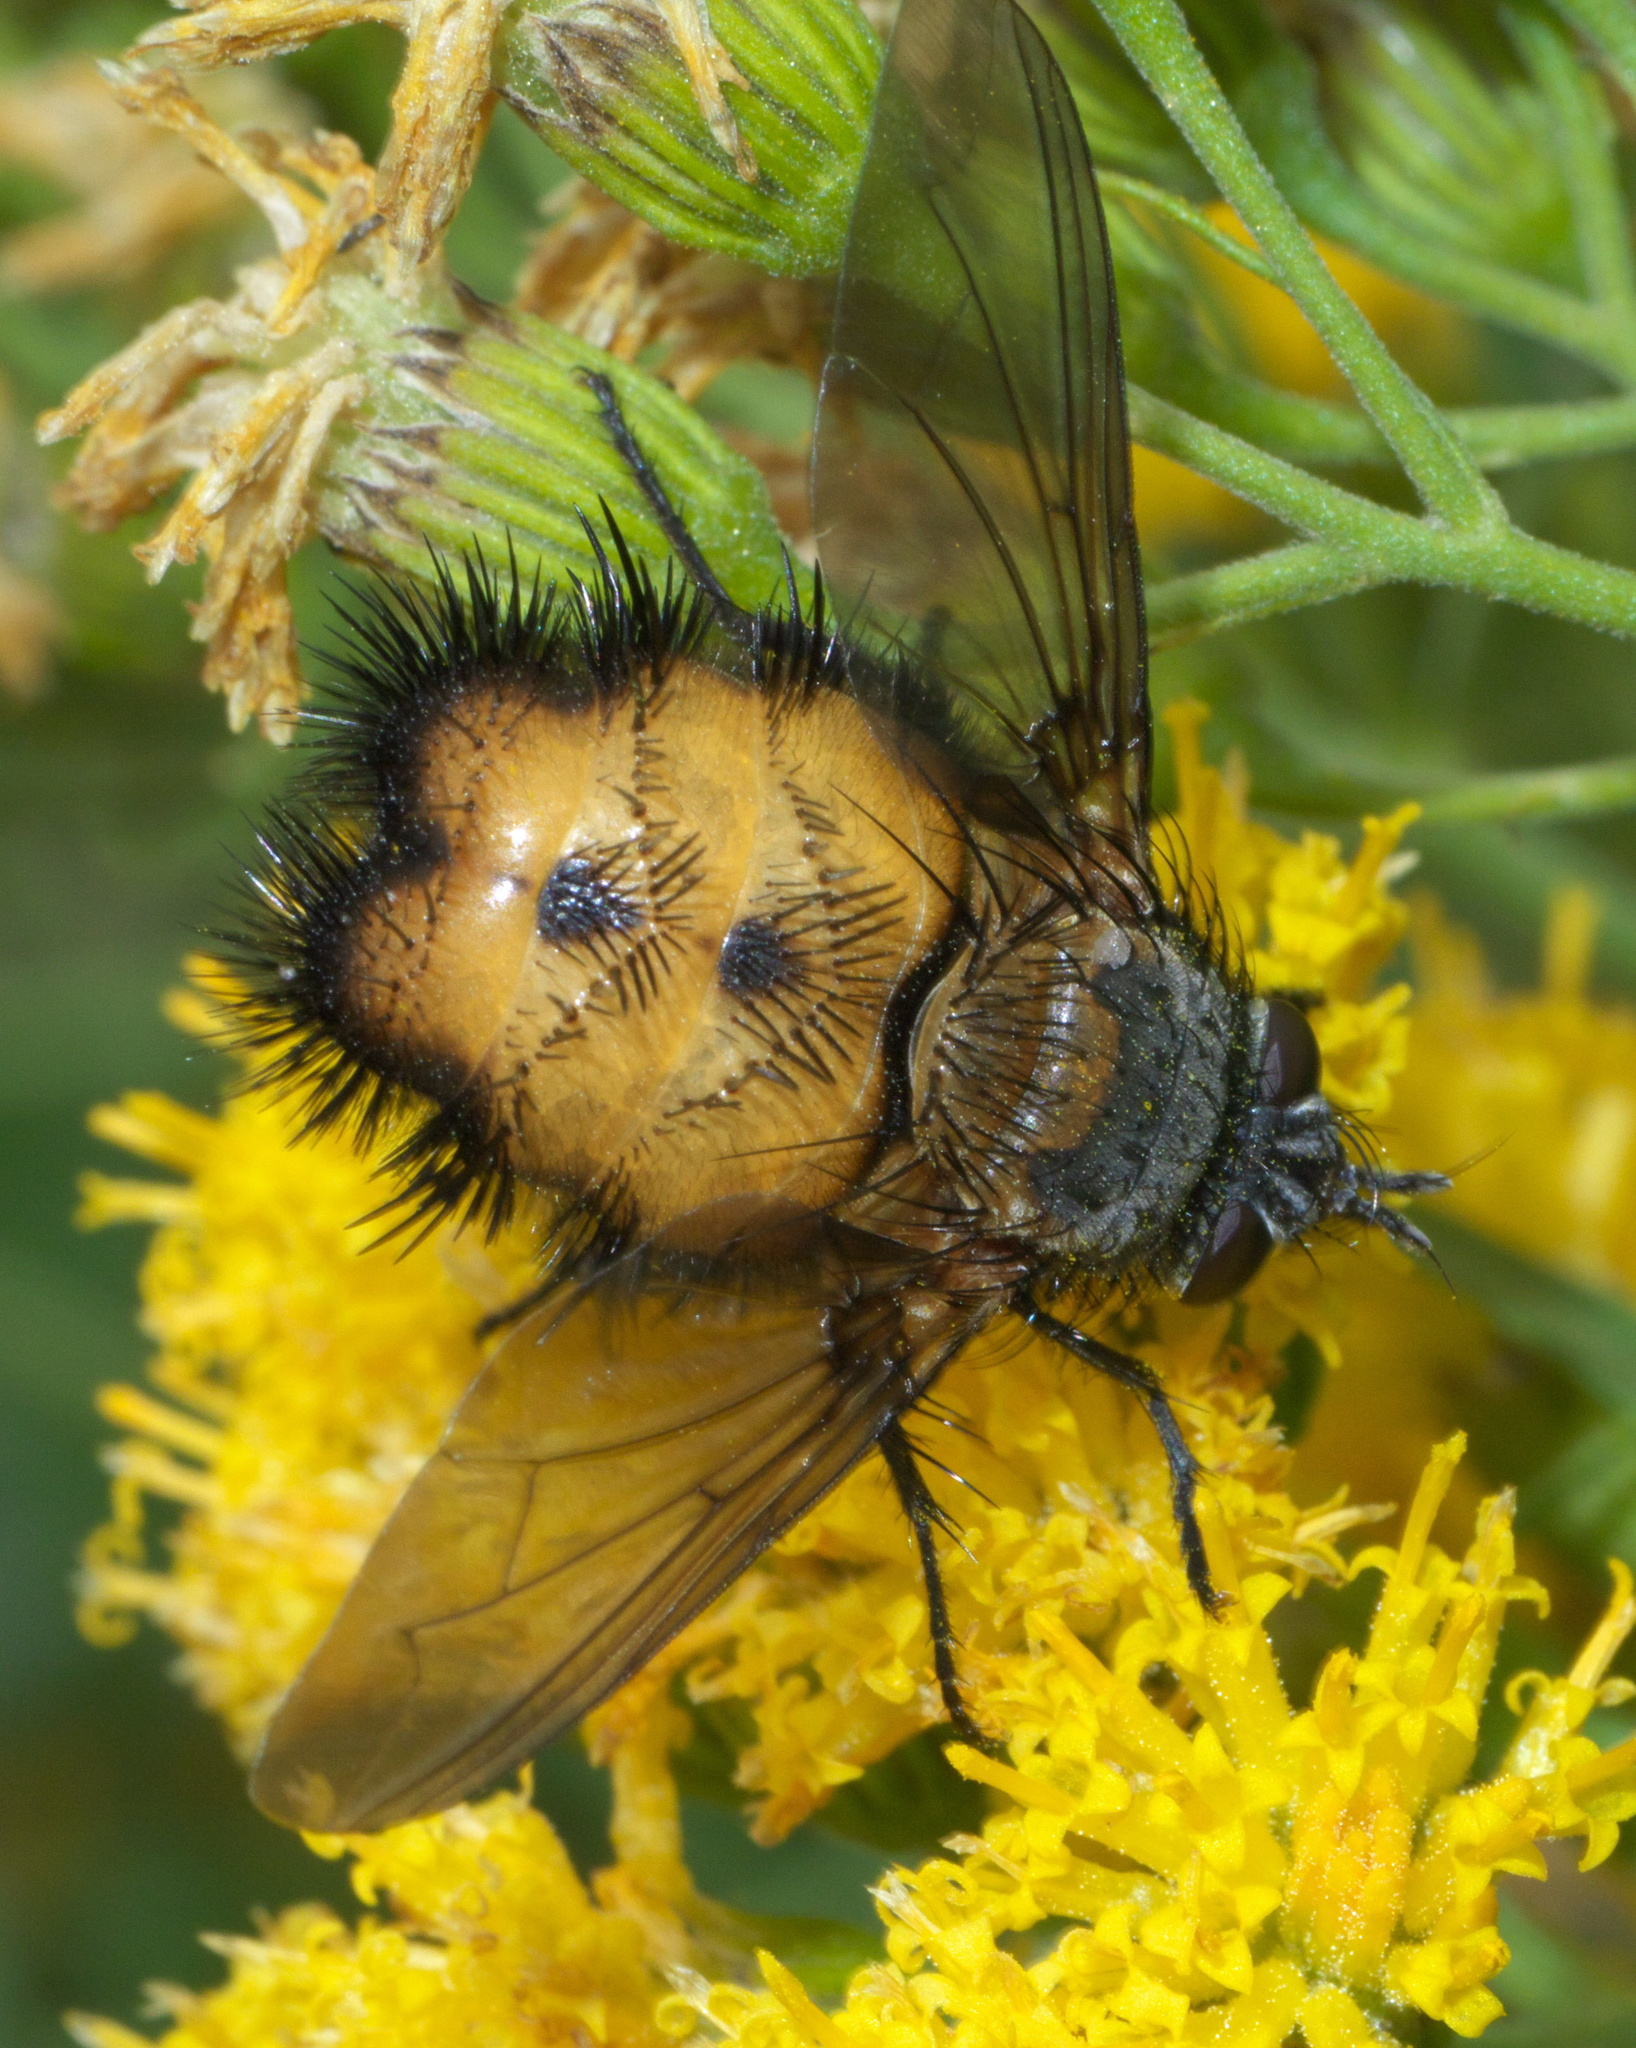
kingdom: Animalia
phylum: Arthropoda
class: Insecta
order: Diptera
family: Tachinidae
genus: Paradejeania
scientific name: Paradejeania rutilioides
